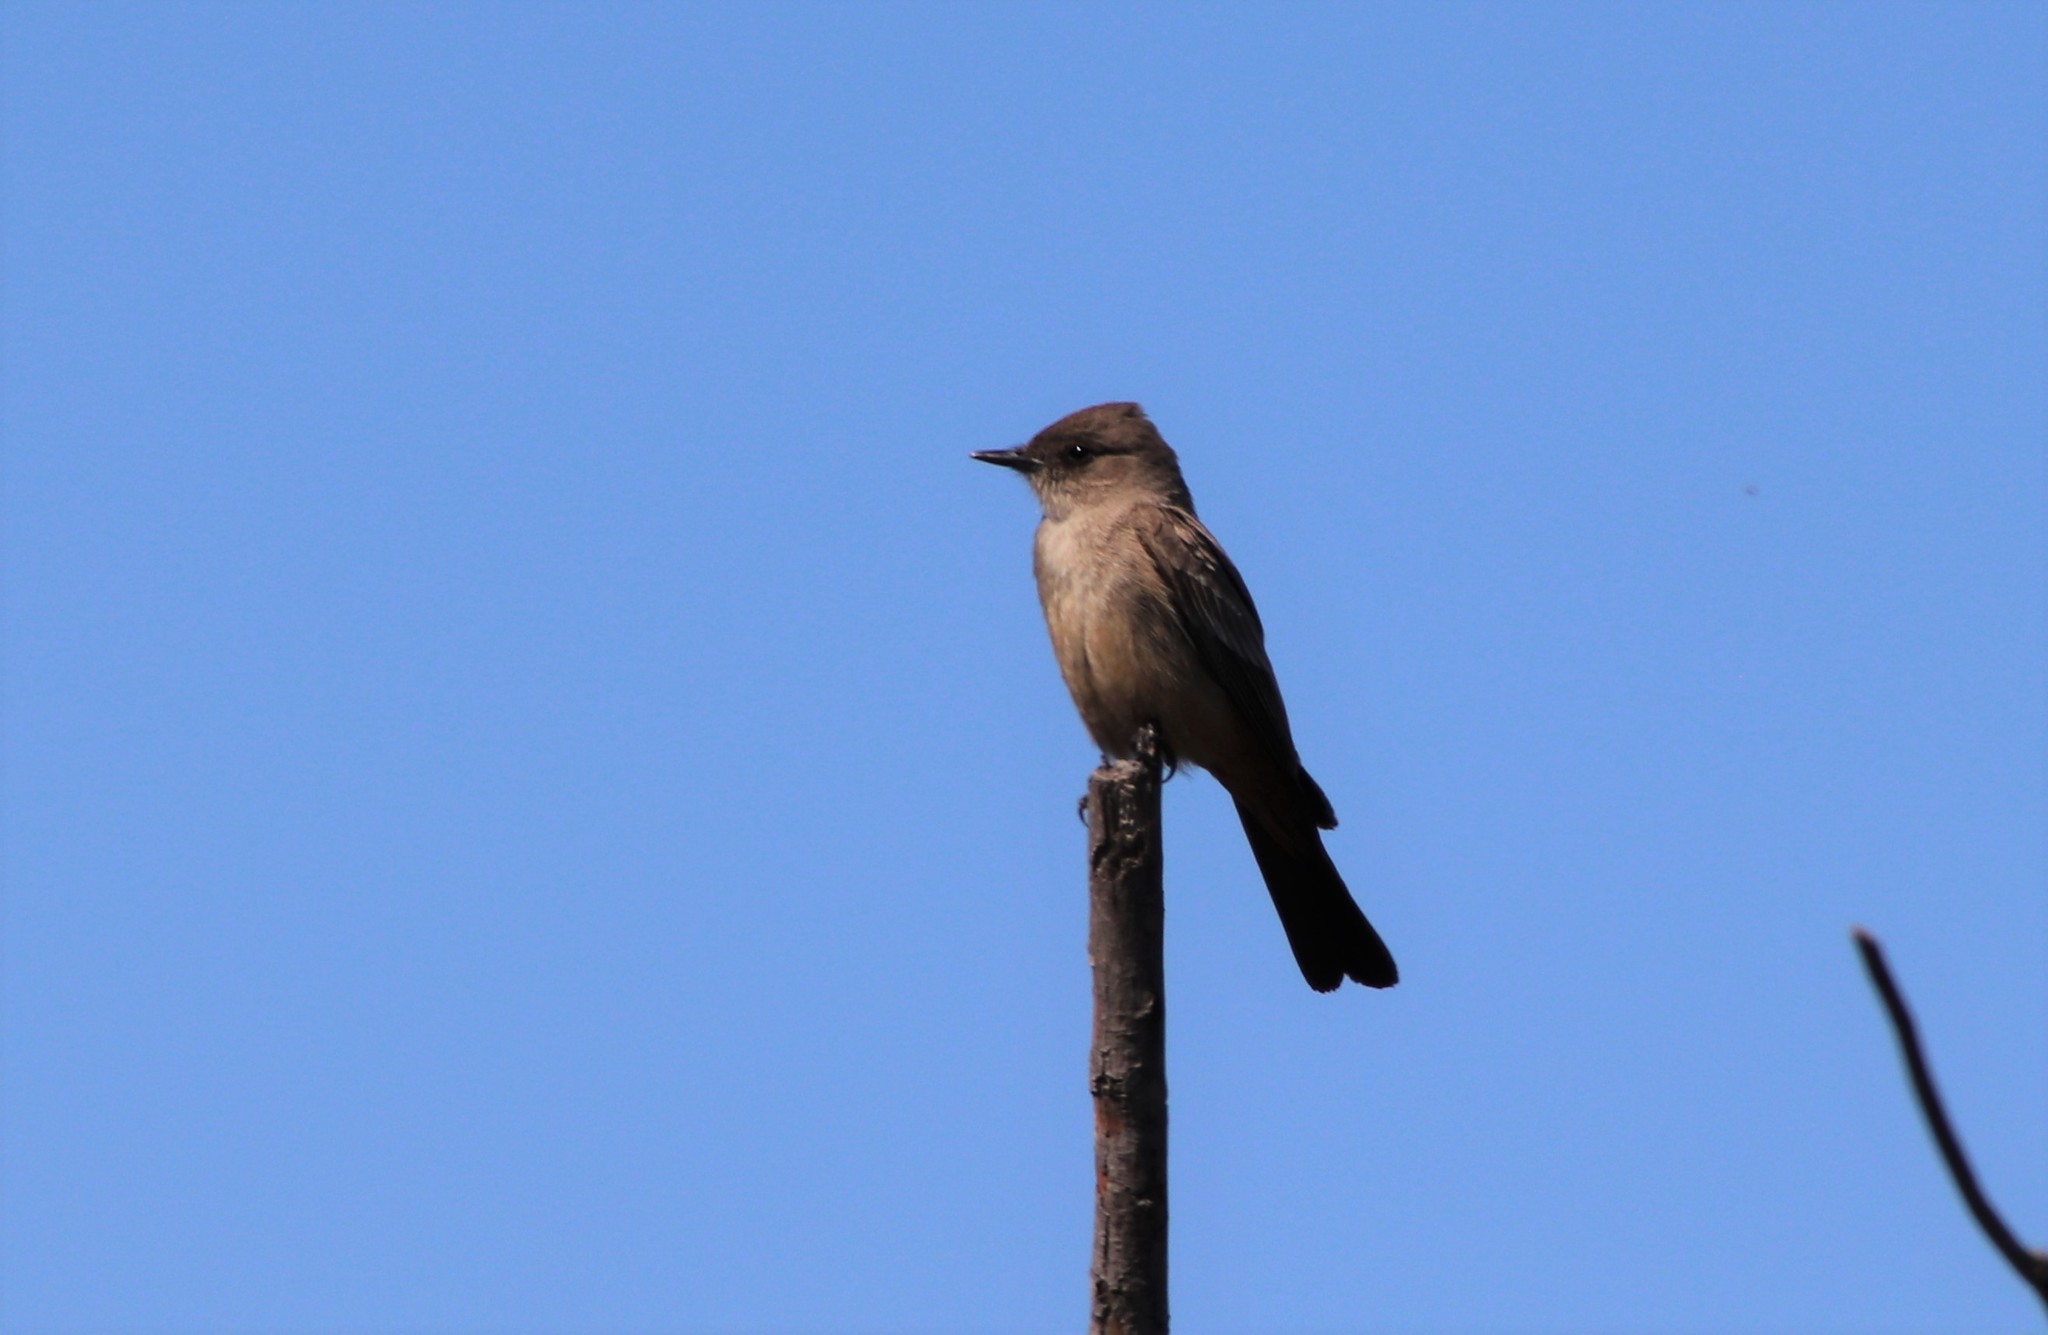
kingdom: Animalia
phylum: Chordata
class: Aves
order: Passeriformes
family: Tyrannidae
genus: Sayornis
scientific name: Sayornis saya
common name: Say's phoebe
